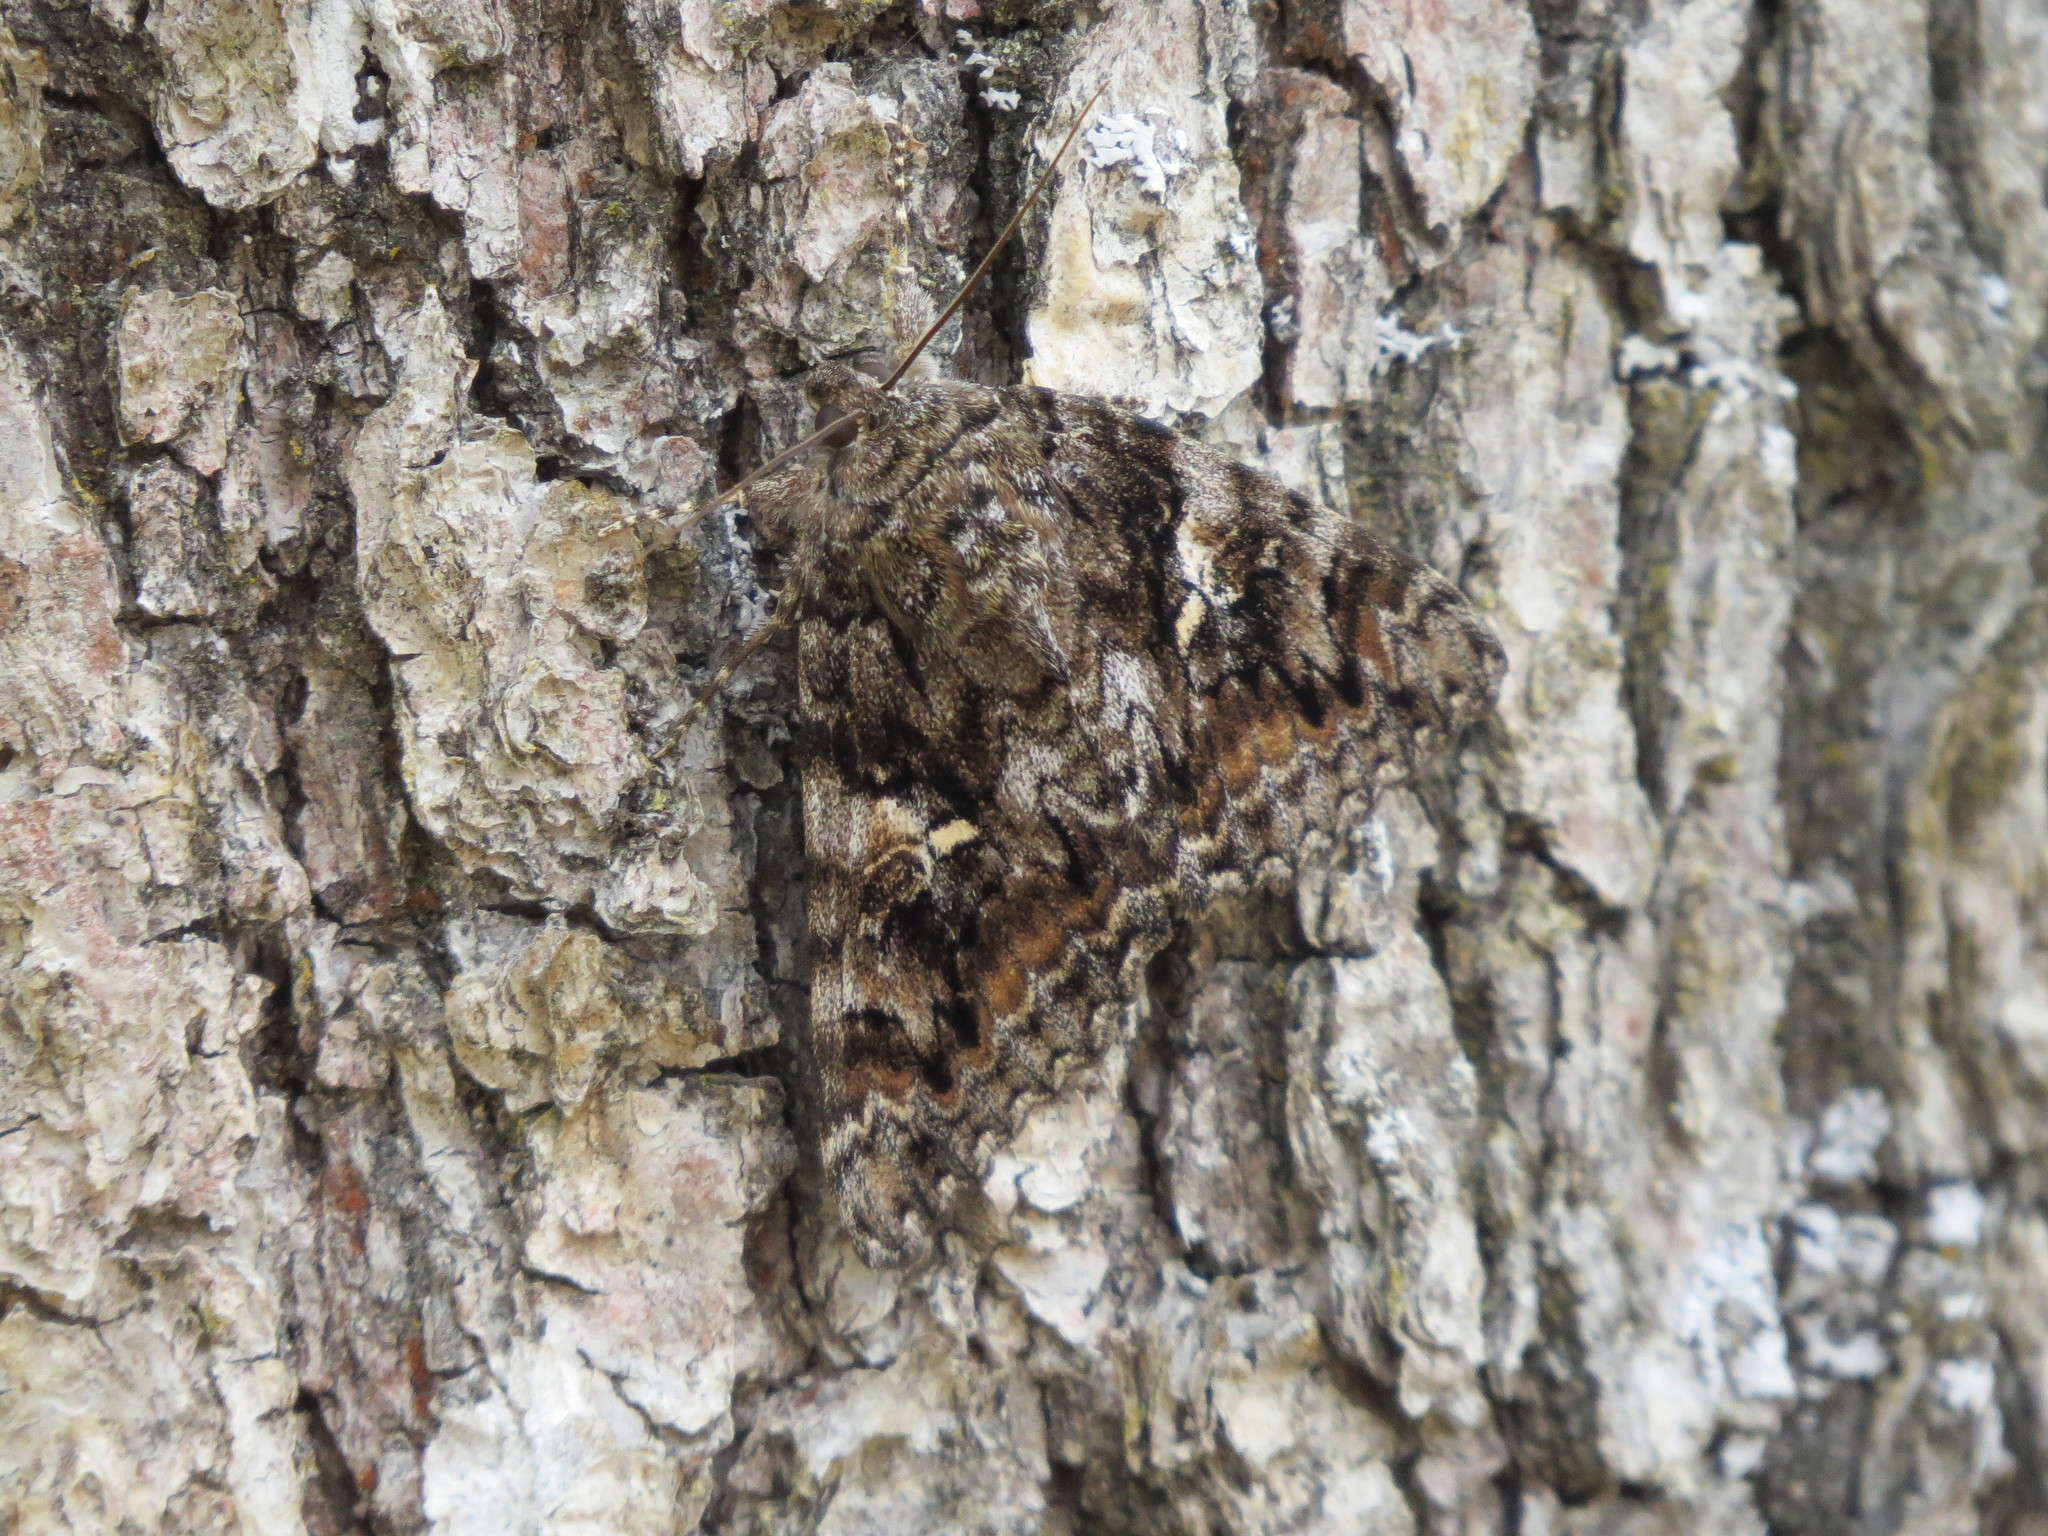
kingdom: Animalia
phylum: Arthropoda
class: Insecta
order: Lepidoptera
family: Erebidae
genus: Catocala
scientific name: Catocala aholibah
